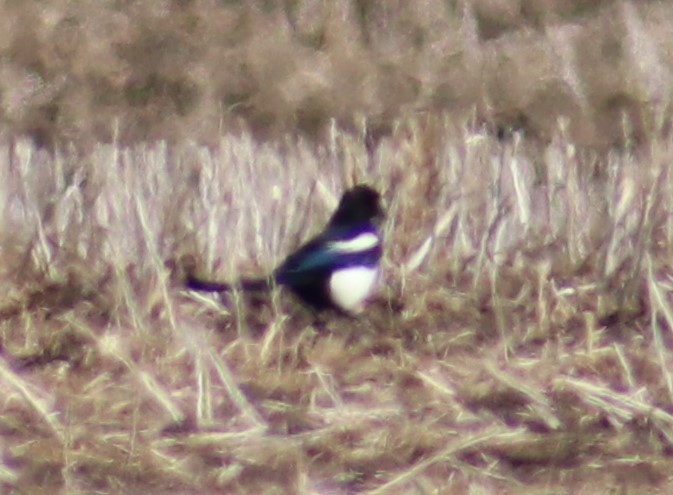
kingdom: Animalia
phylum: Chordata
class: Aves
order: Passeriformes
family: Corvidae
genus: Pica
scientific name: Pica hudsonia
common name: Black-billed magpie
